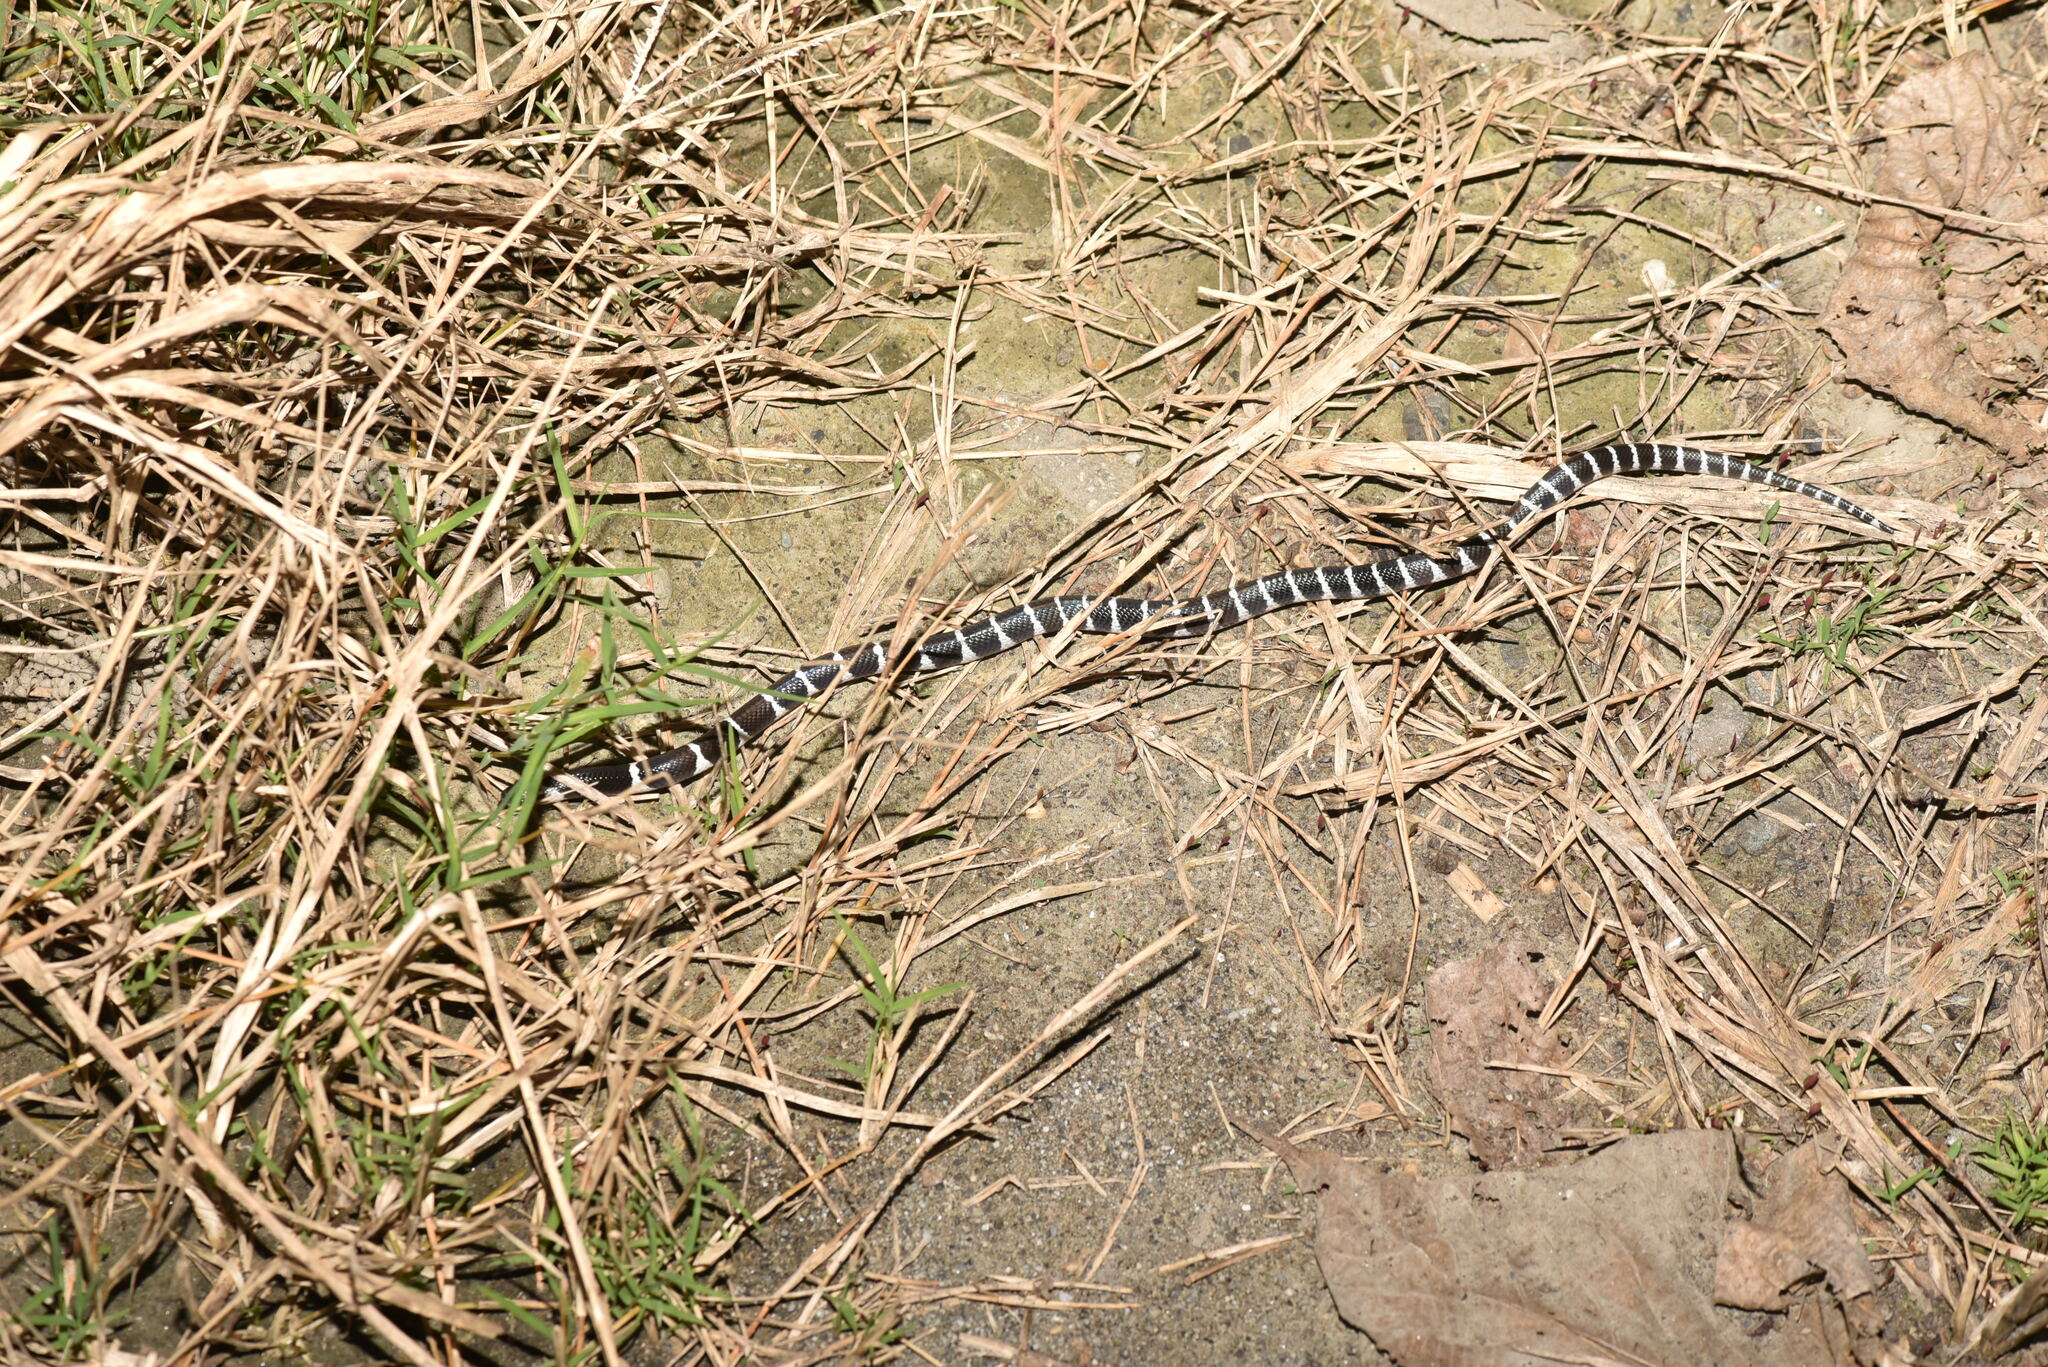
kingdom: Animalia
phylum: Chordata
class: Squamata
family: Elapidae
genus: Bungarus
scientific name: Bungarus multicinctus
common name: Many-banded krait
